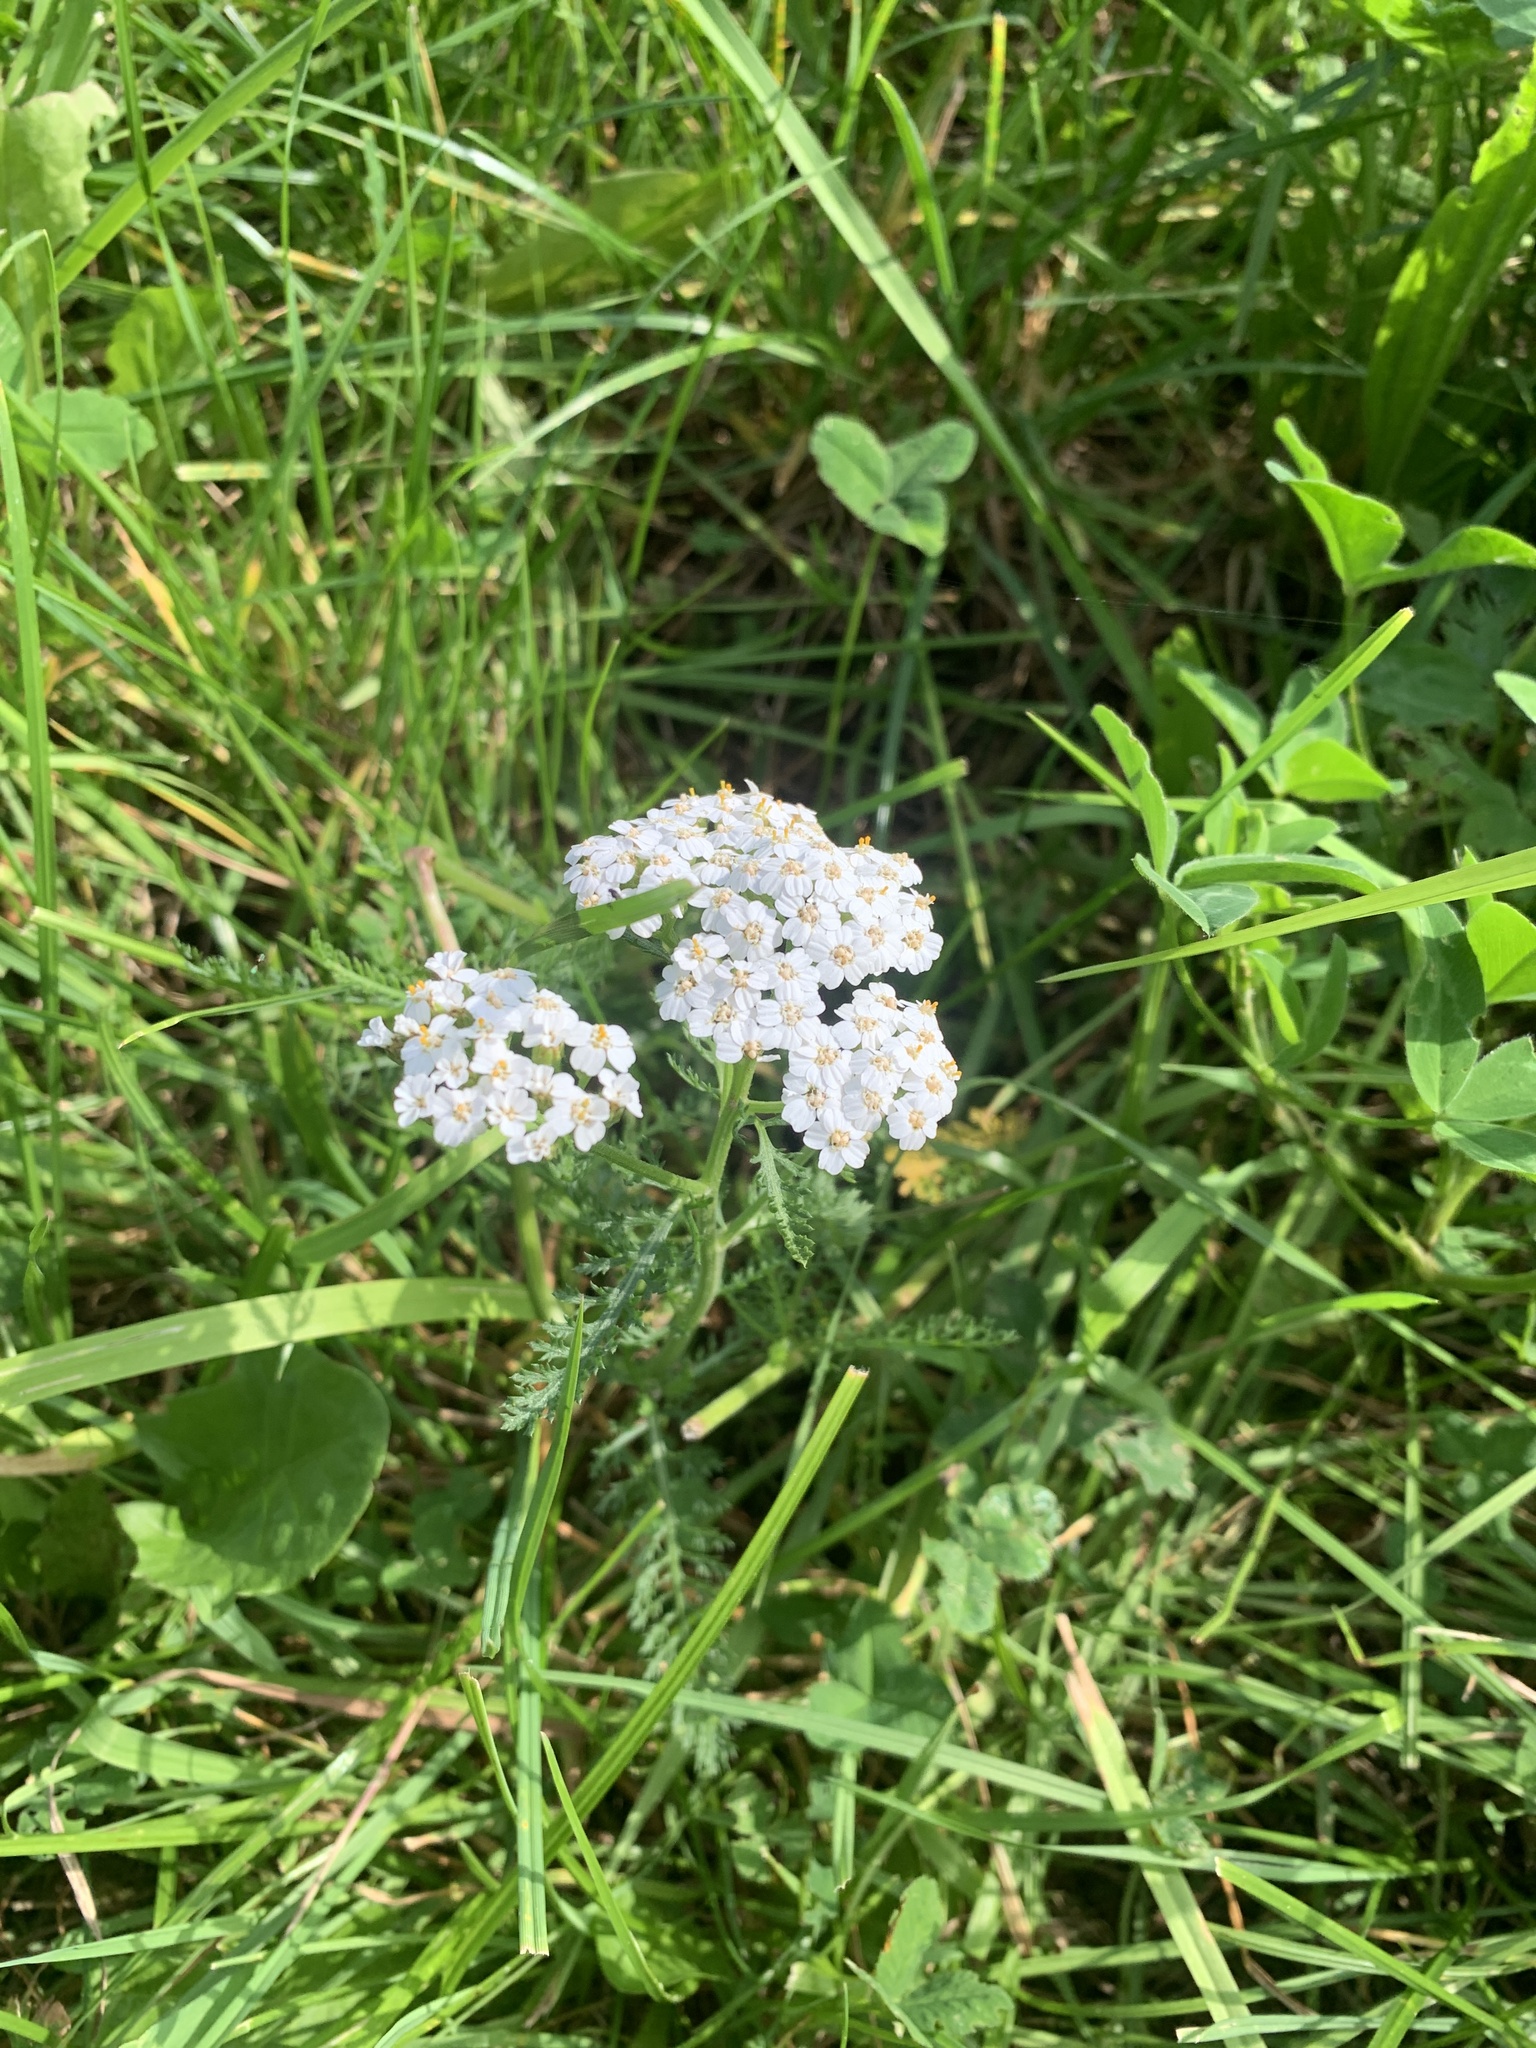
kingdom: Plantae
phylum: Tracheophyta
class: Magnoliopsida
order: Asterales
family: Asteraceae
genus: Achillea
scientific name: Achillea millefolium
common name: Yarrow
